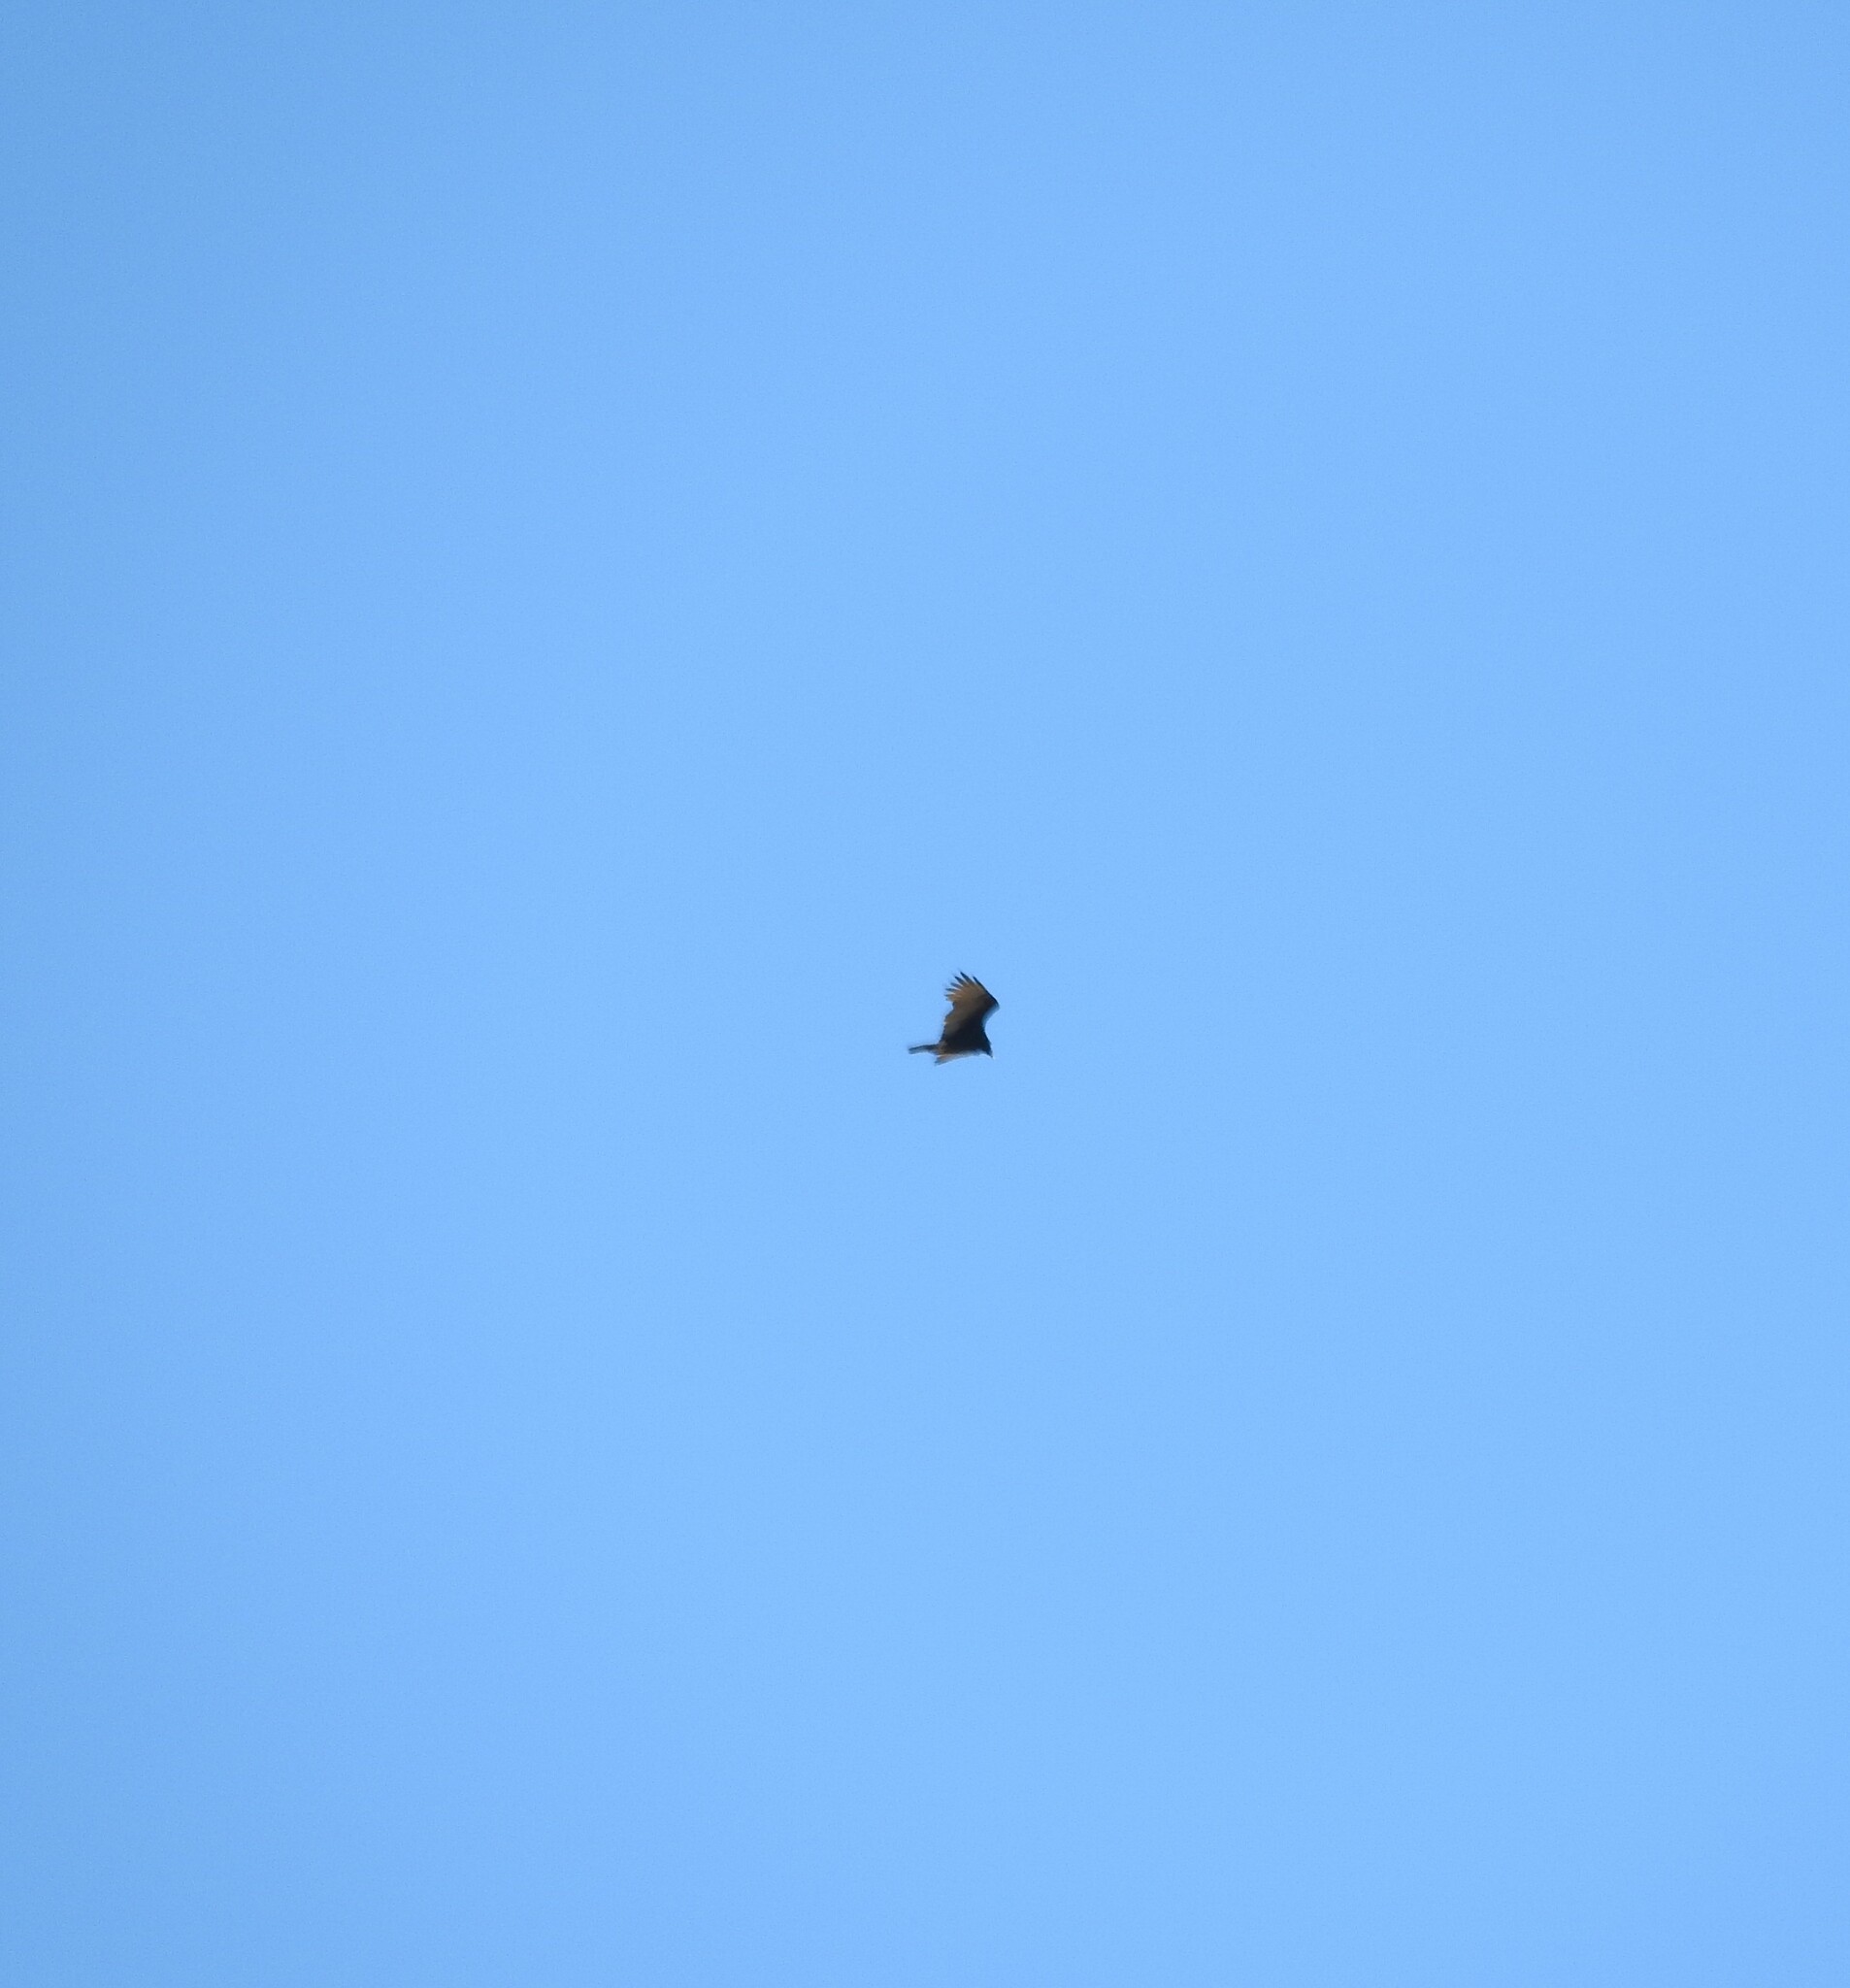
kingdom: Animalia
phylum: Chordata
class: Aves
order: Accipitriformes
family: Cathartidae
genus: Cathartes
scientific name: Cathartes aura
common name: Turkey vulture
